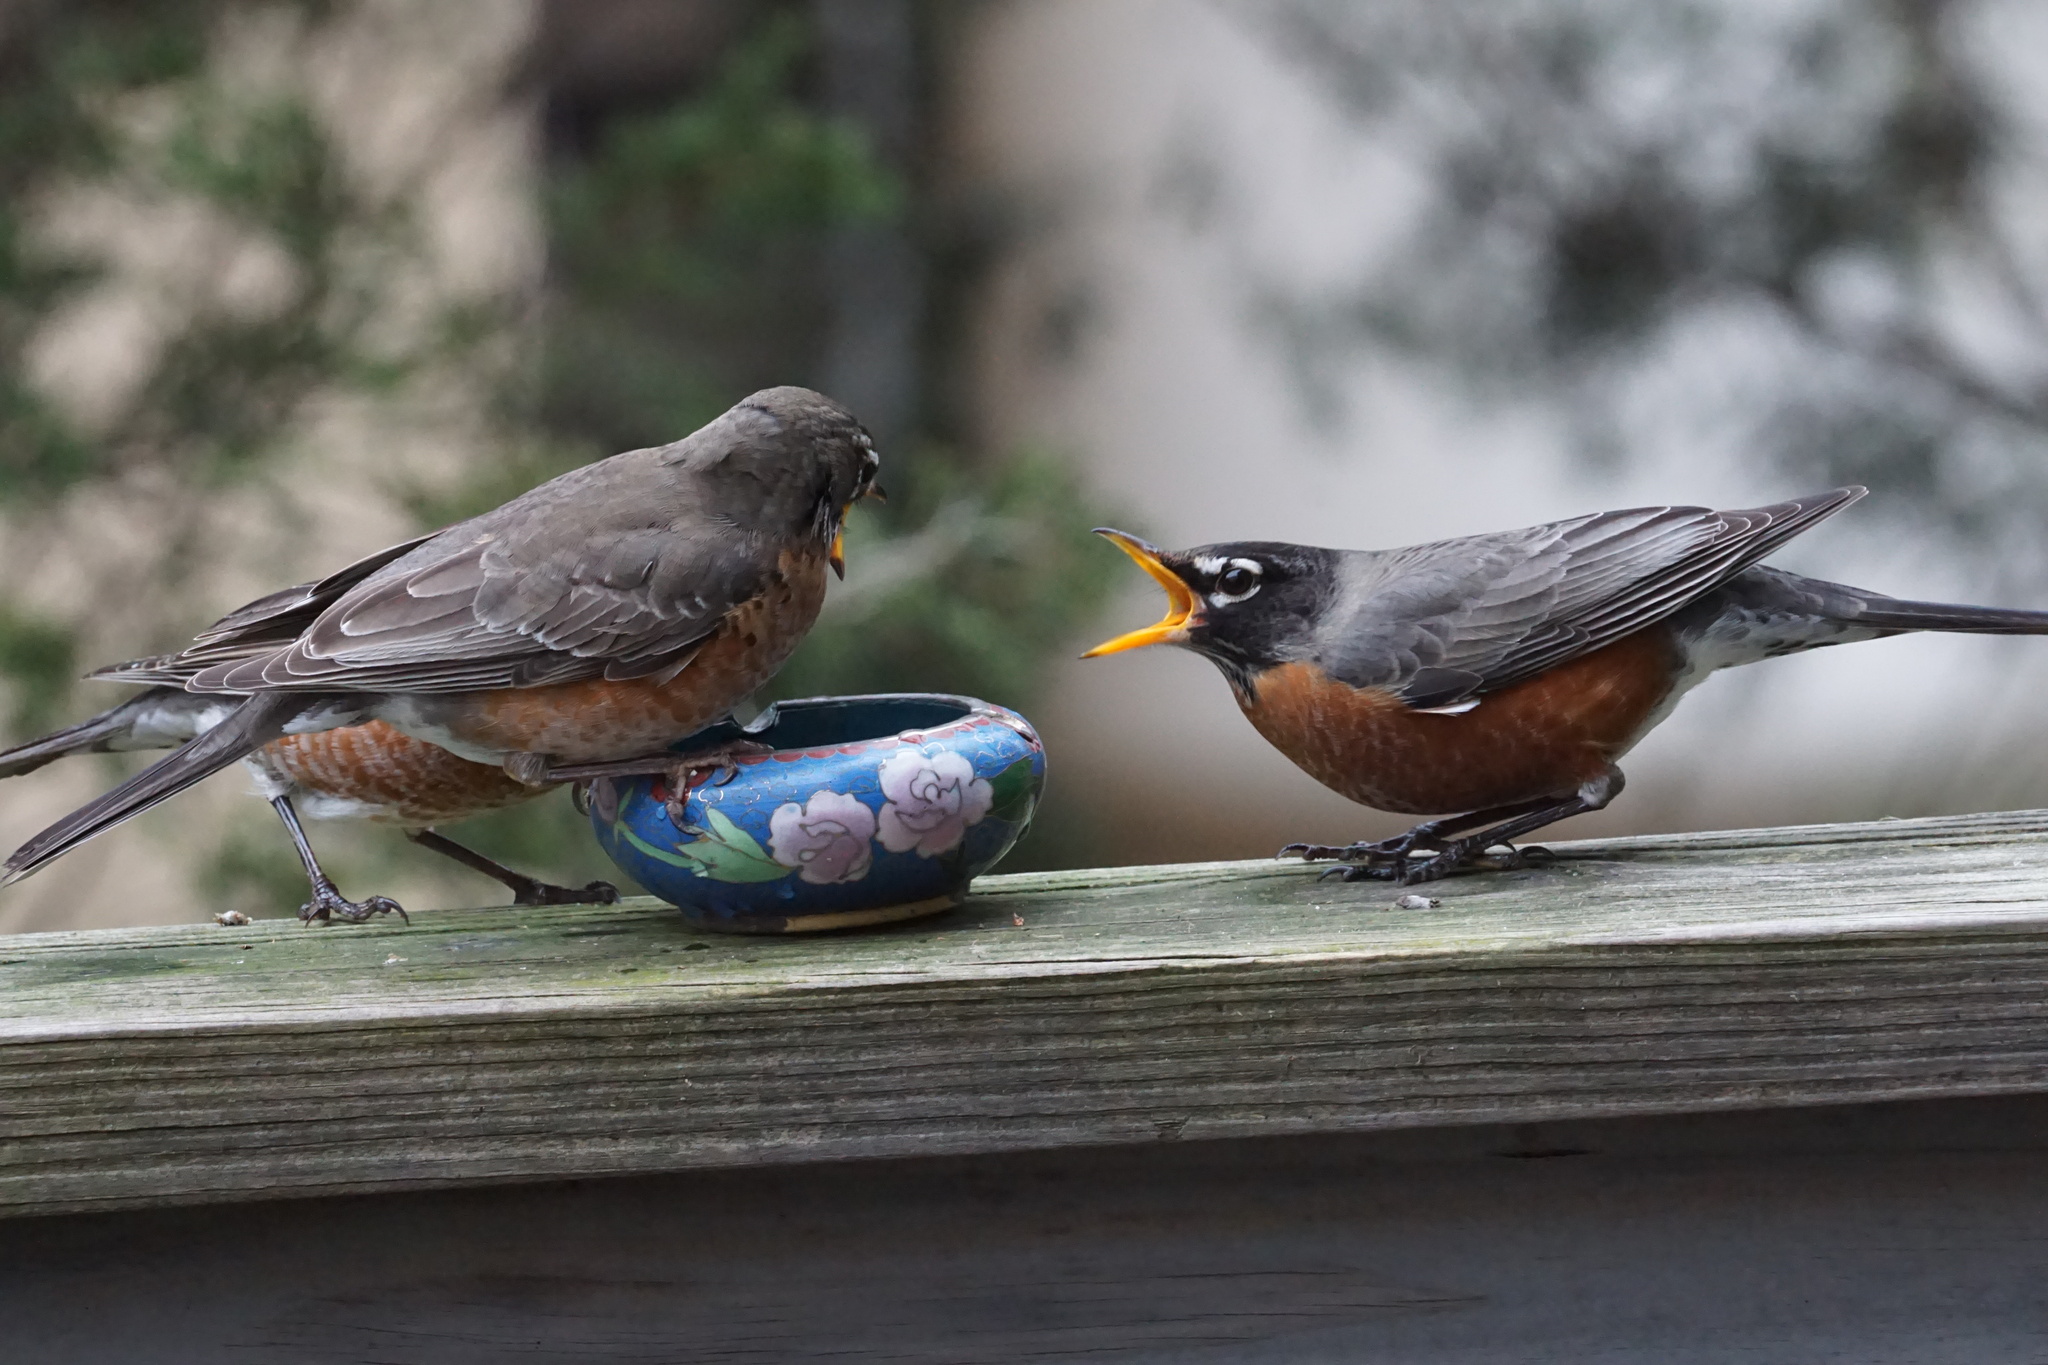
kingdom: Animalia
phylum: Chordata
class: Aves
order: Passeriformes
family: Turdidae
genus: Turdus
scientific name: Turdus migratorius
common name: American robin
